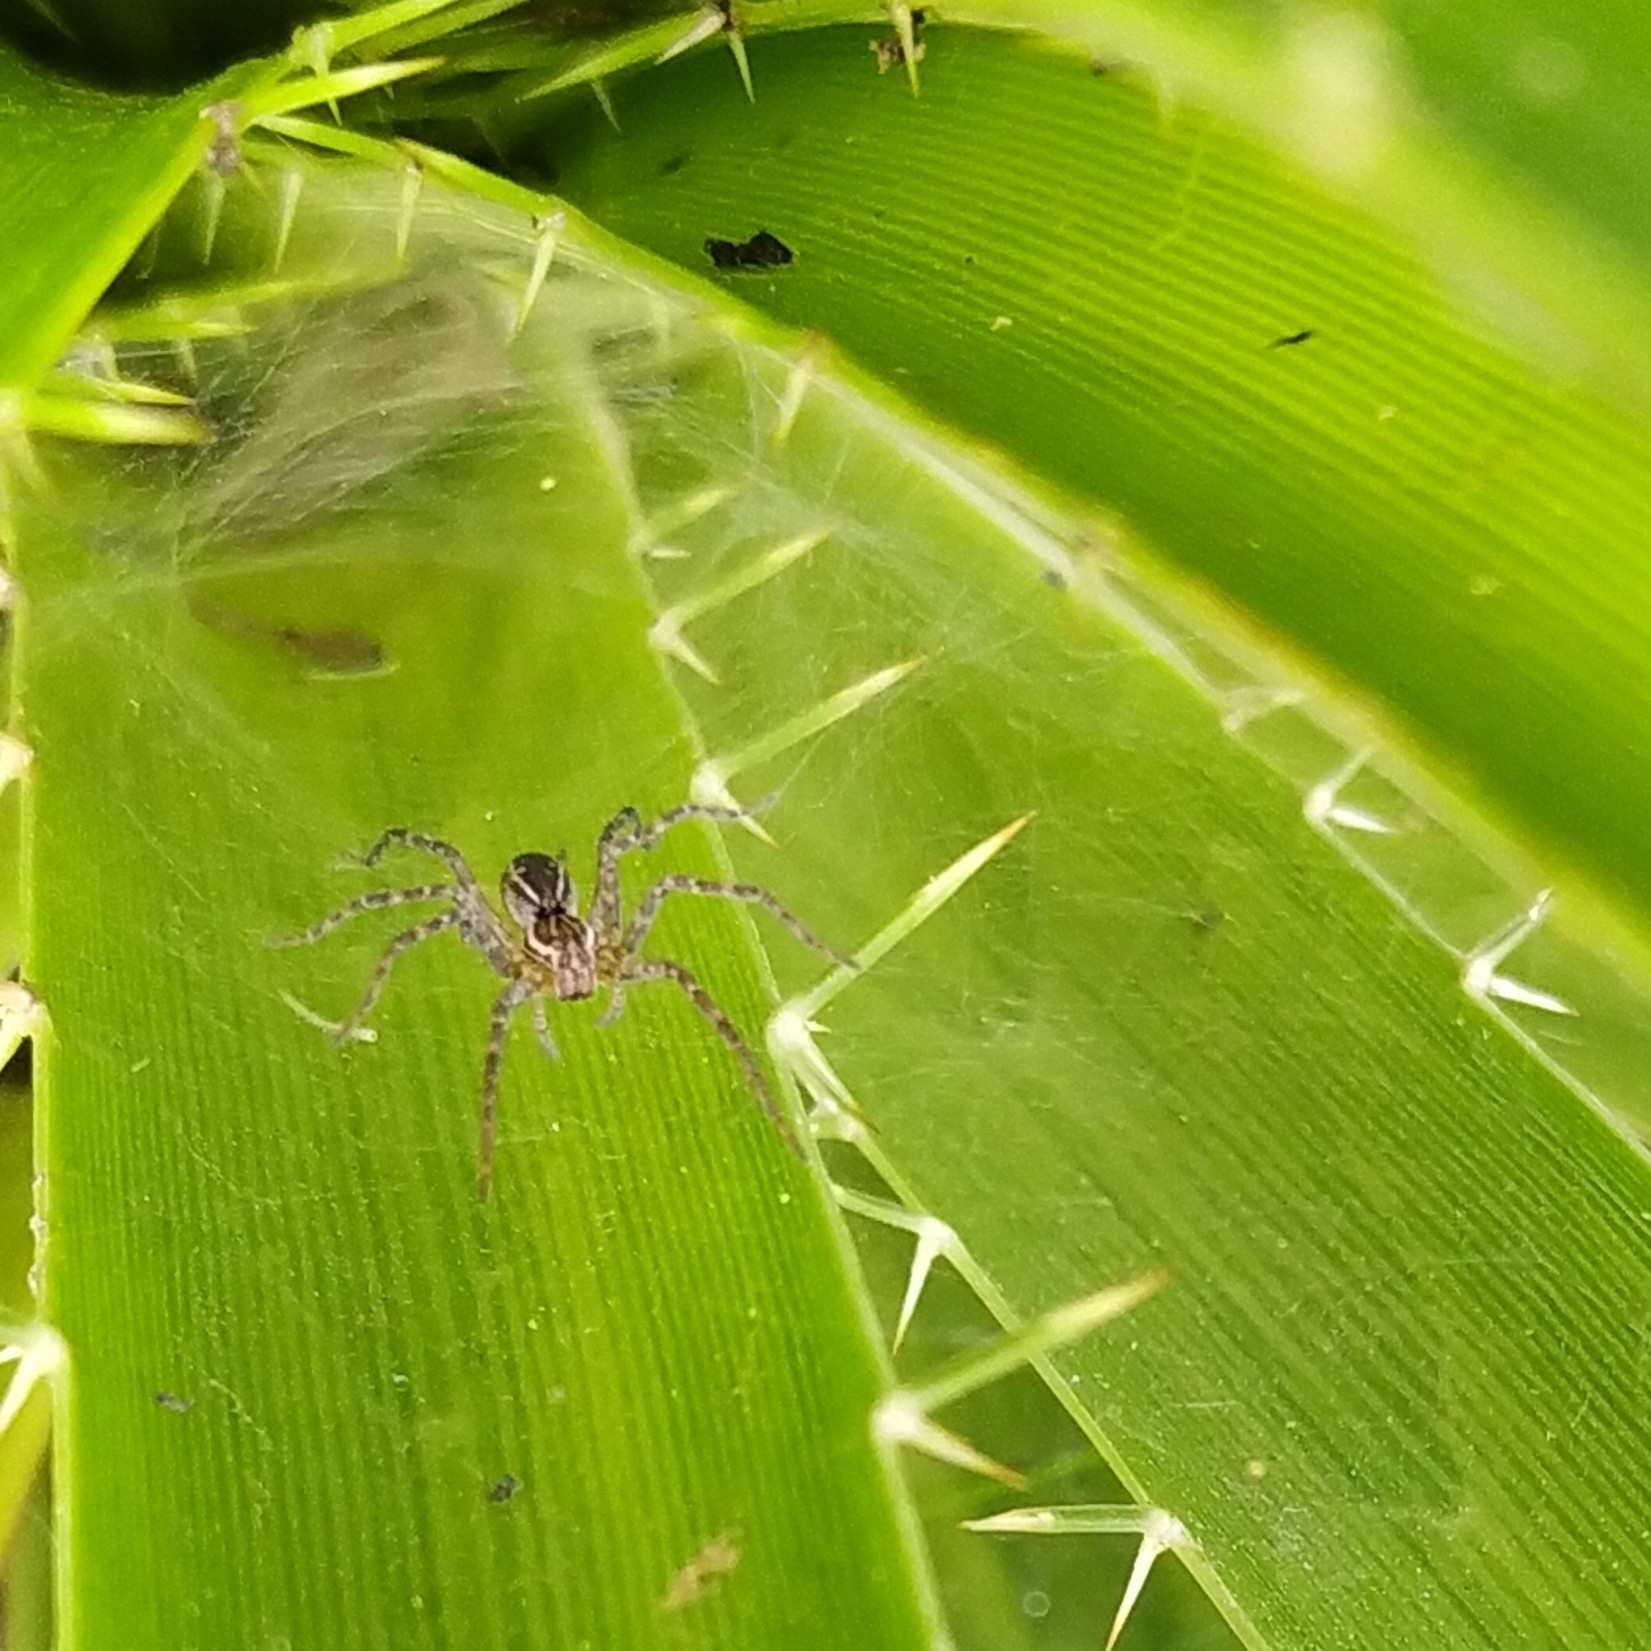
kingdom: Animalia
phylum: Arthropoda
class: Arachnida
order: Araneae
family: Lycosidae
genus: Aglaoctenus
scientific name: Aglaoctenus lagotis
